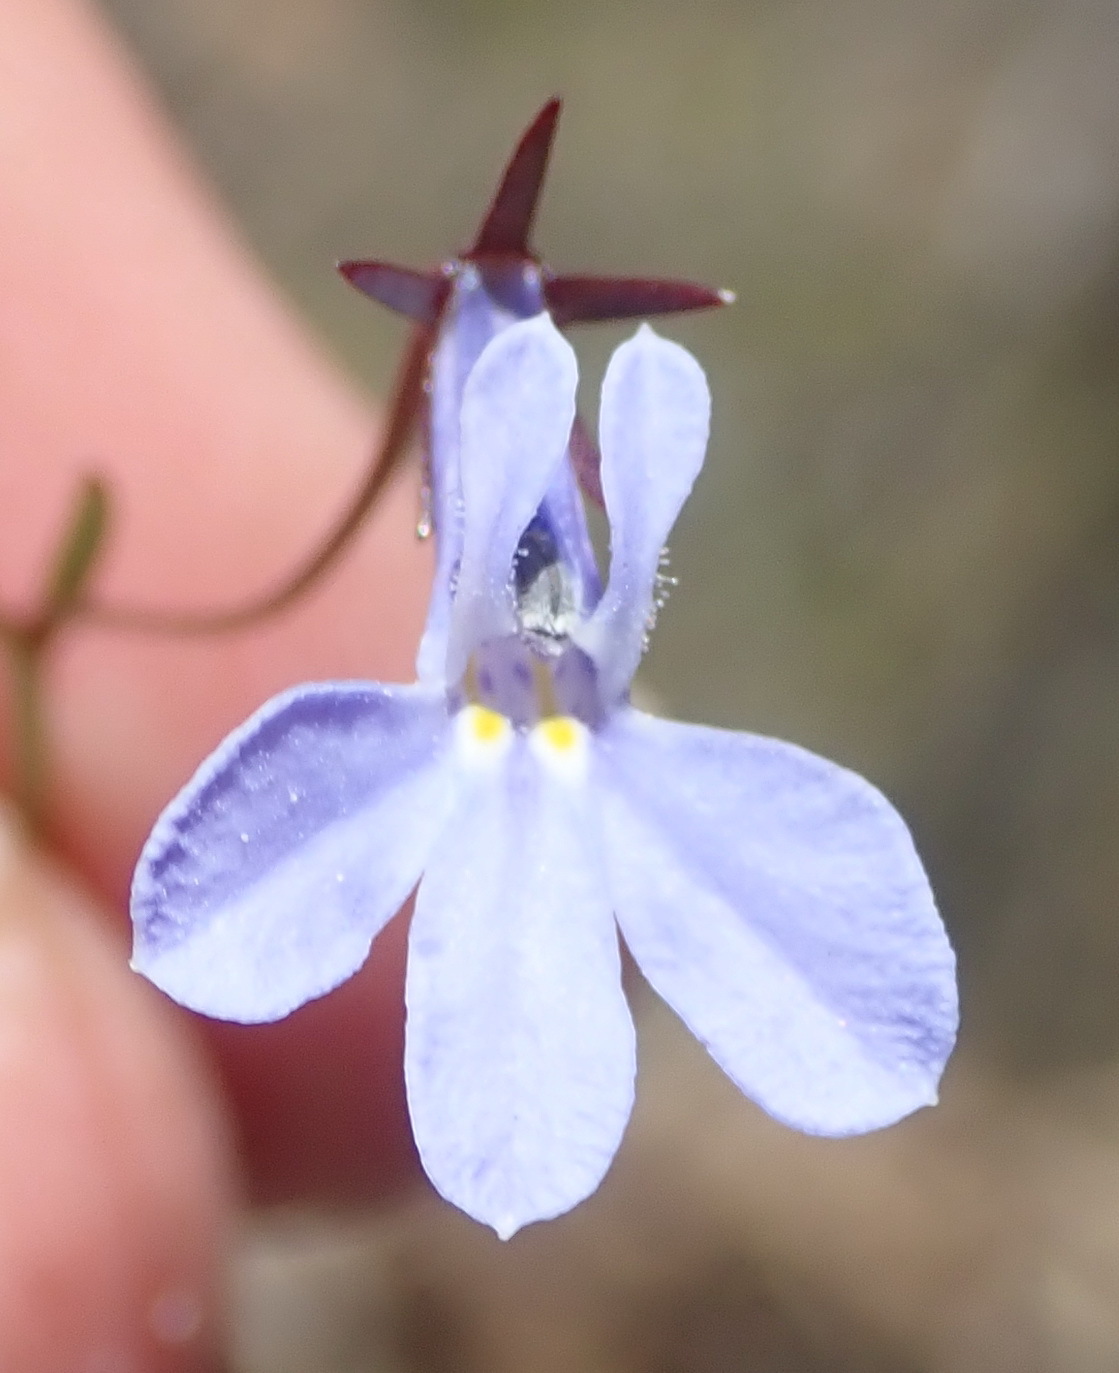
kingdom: Plantae
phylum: Tracheophyta
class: Magnoliopsida
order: Asterales
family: Campanulaceae
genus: Lobelia
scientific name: Lobelia laxa
